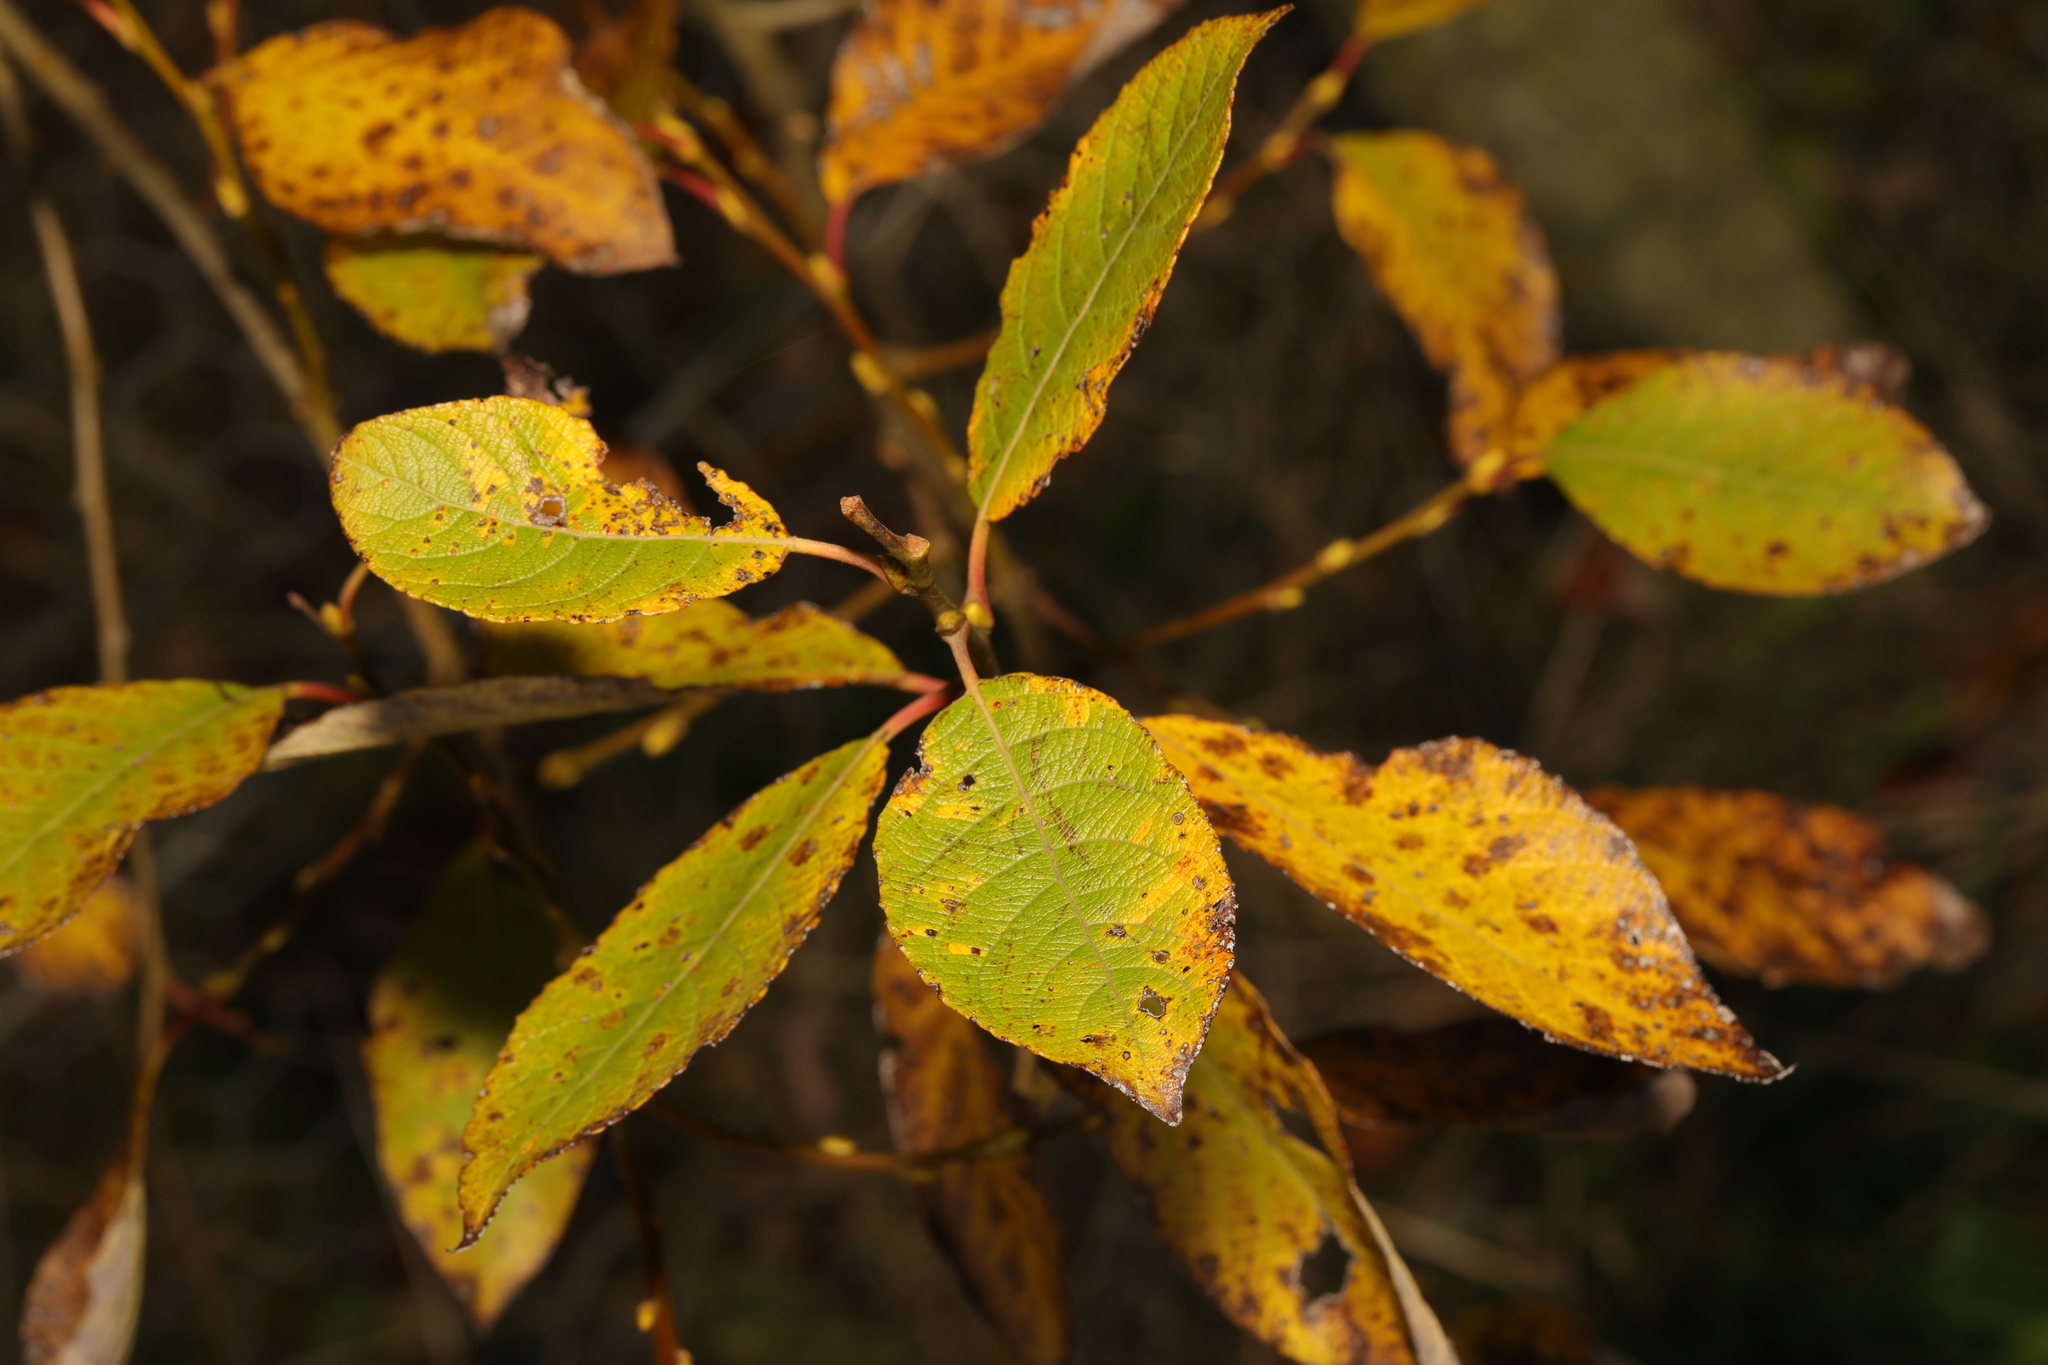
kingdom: Plantae
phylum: Tracheophyta
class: Magnoliopsida
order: Malpighiales
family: Salicaceae
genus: Salix
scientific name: Salix cinerea
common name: Common sallow
